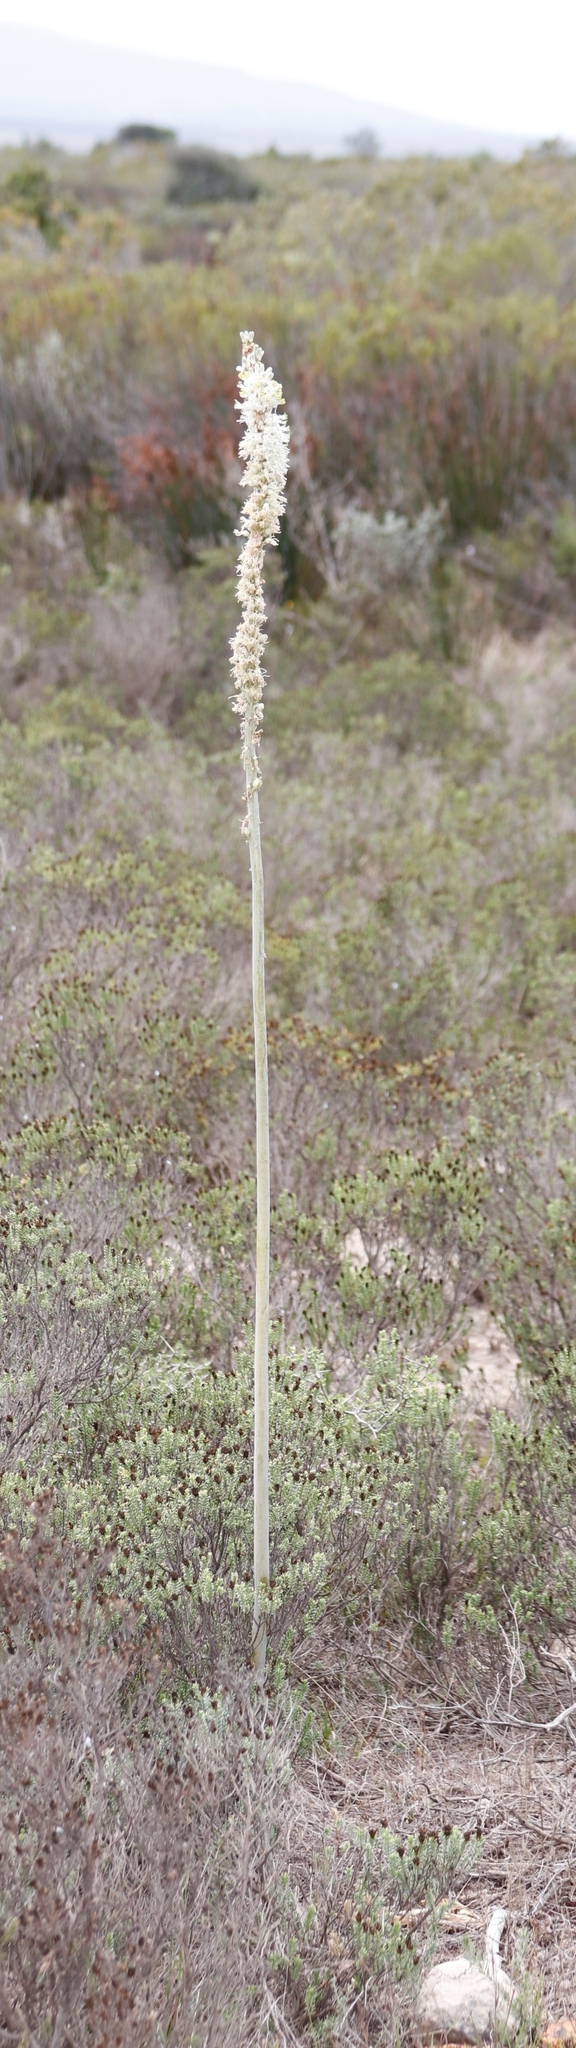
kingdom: Plantae
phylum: Tracheophyta
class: Liliopsida
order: Asparagales
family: Asparagaceae
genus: Drimia
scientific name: Drimia capensis
